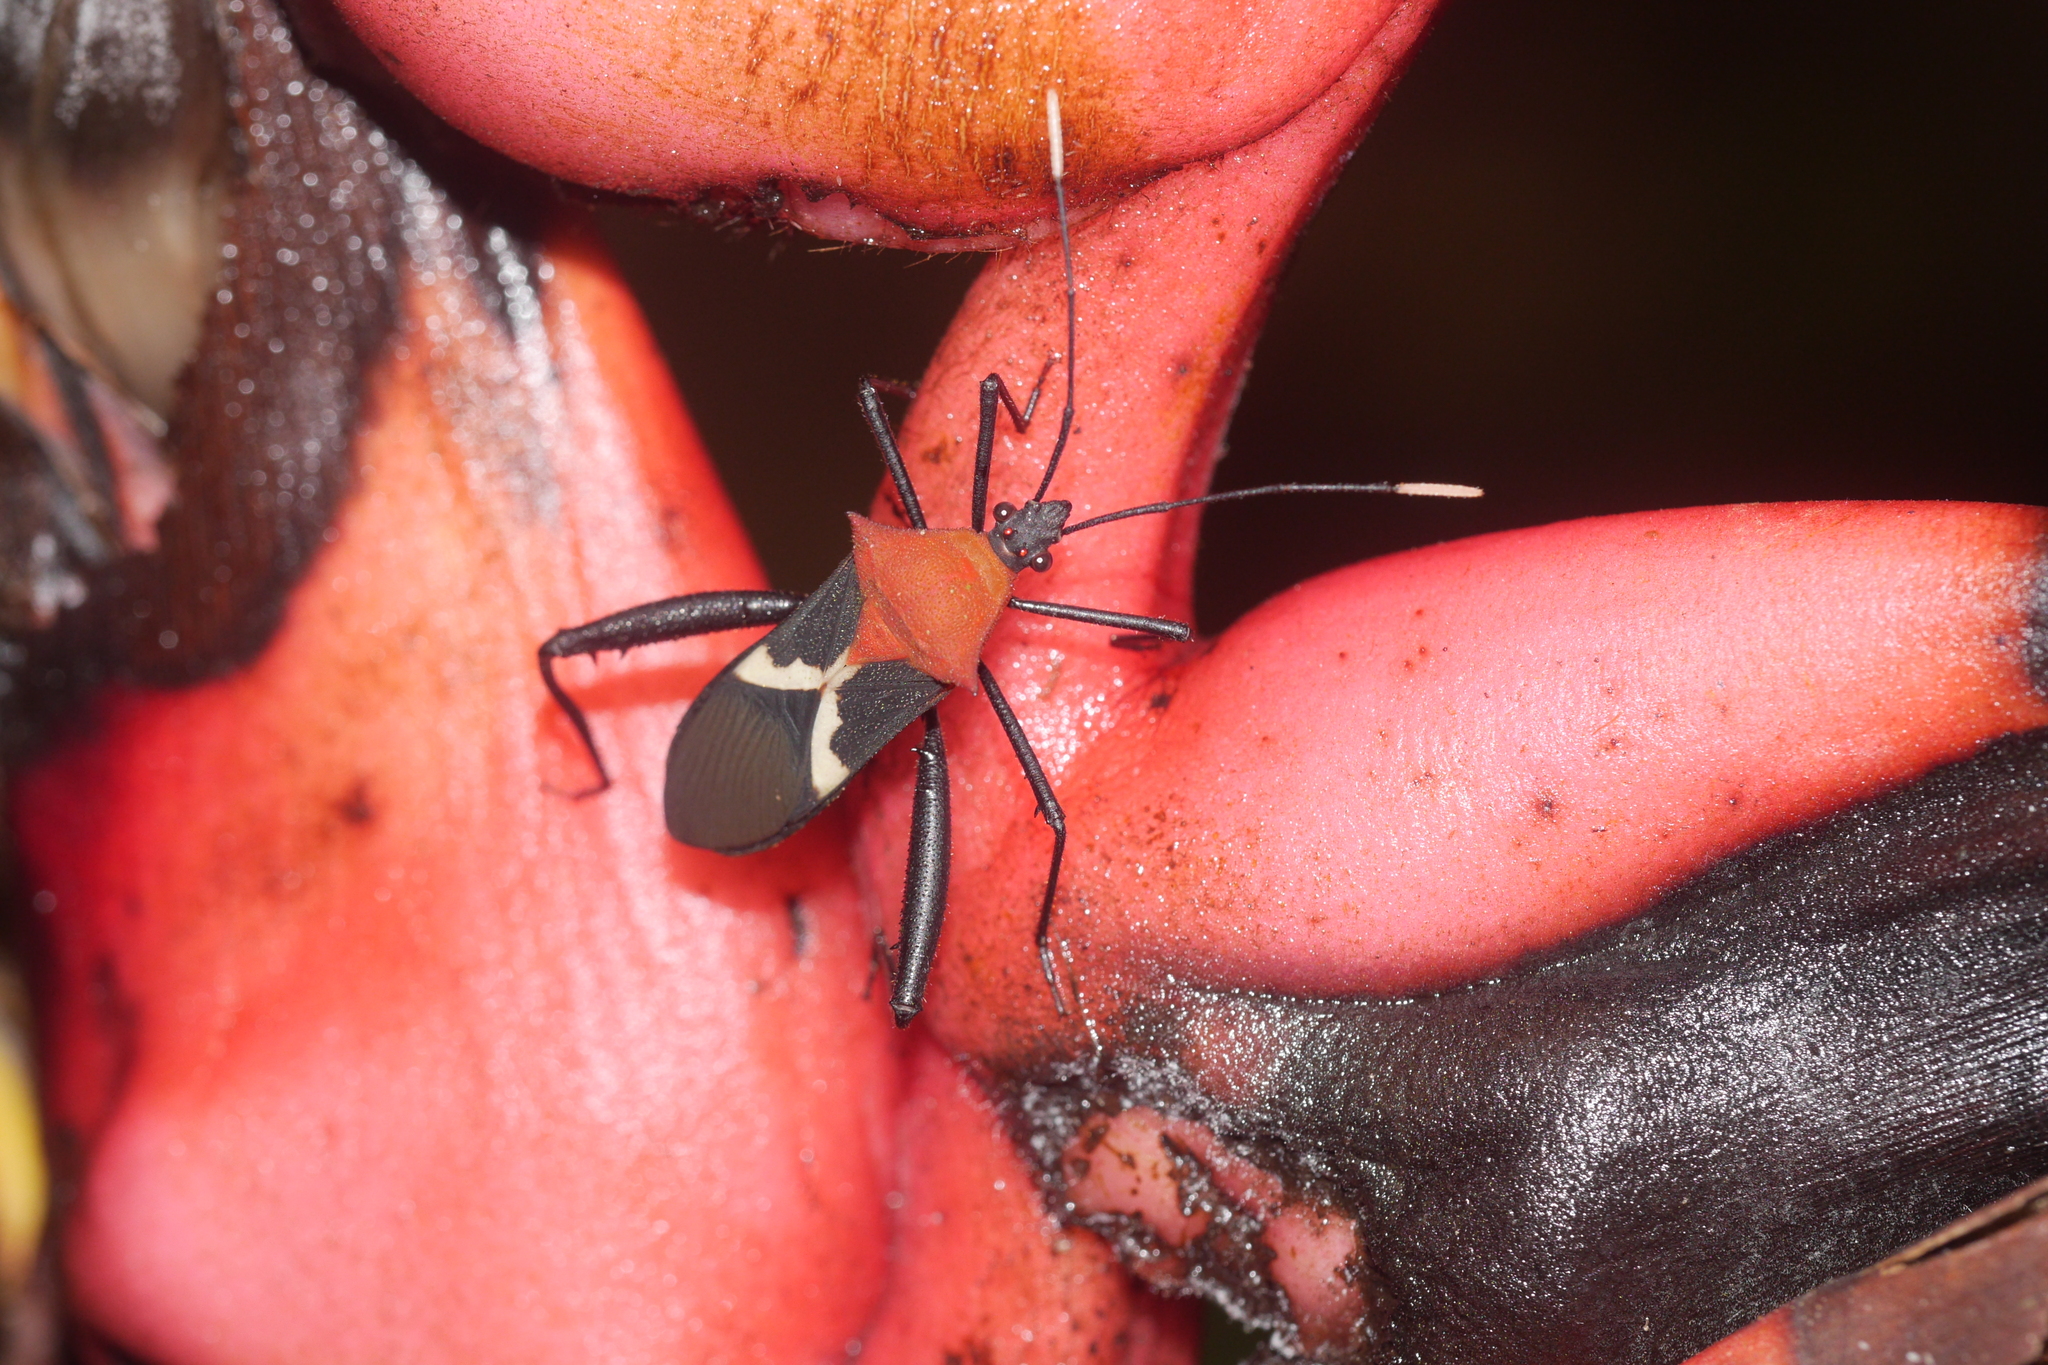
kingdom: Animalia
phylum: Arthropoda
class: Insecta
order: Hemiptera
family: Coreidae
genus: Leptoscelis
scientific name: Leptoscelis militaris
